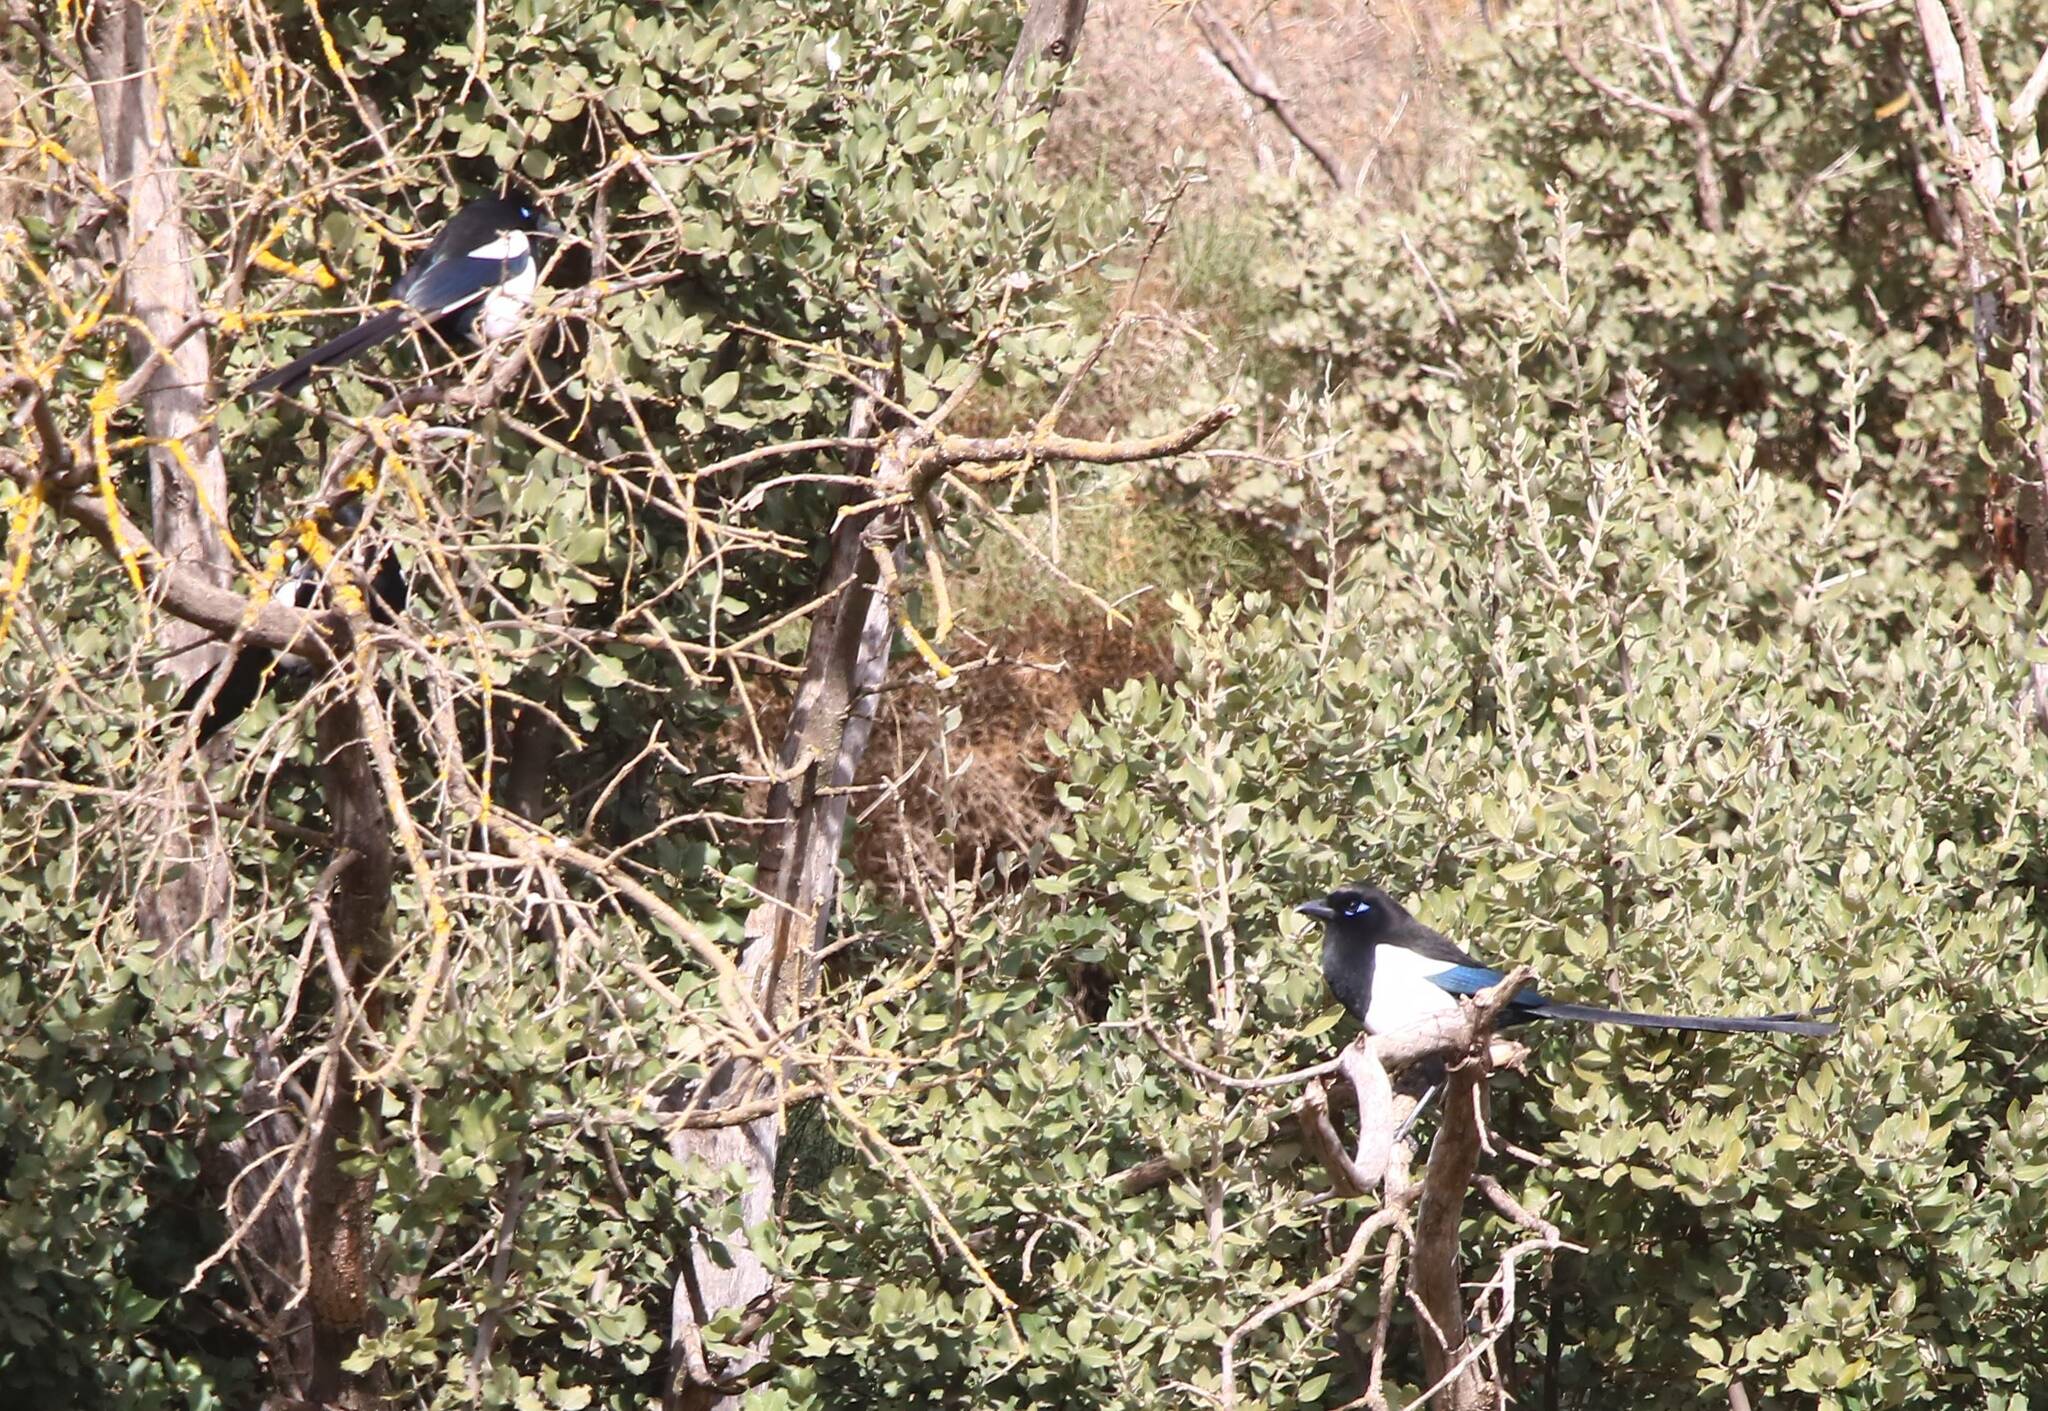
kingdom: Animalia
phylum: Chordata
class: Aves
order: Passeriformes
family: Corvidae
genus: Pica
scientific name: Pica mauritanica
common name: Maghreb magpie
